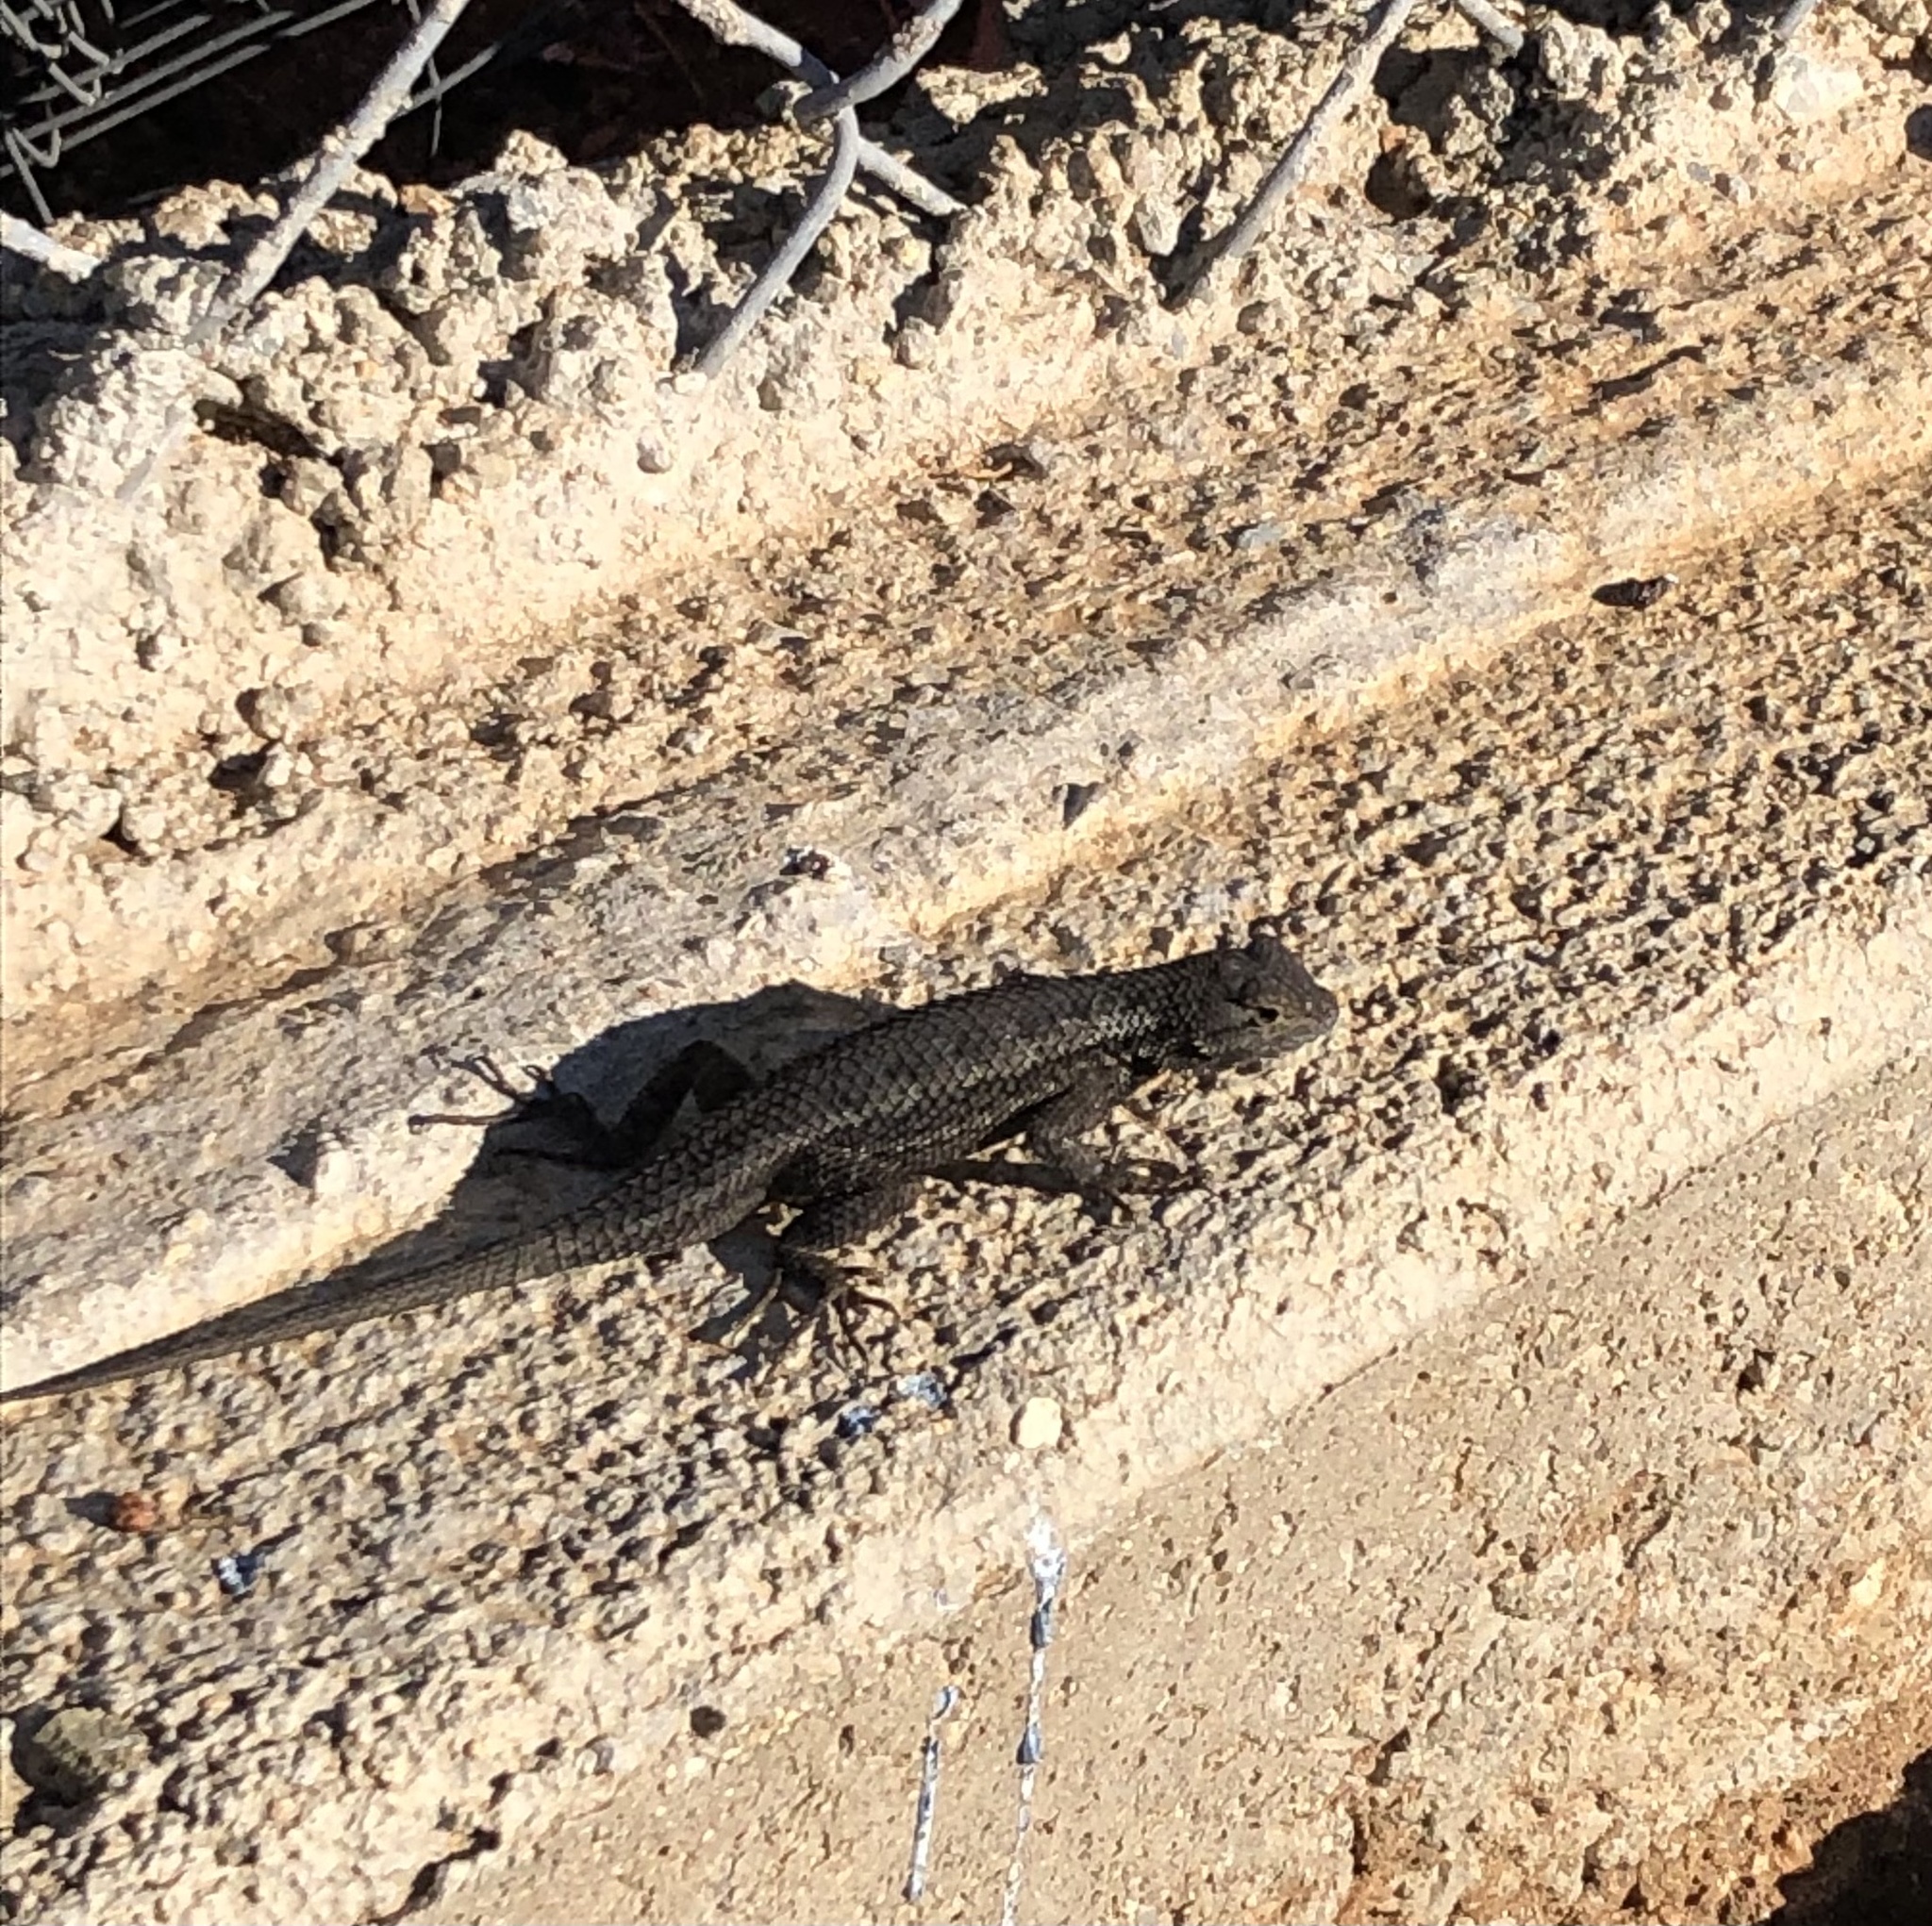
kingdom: Animalia
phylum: Chordata
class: Squamata
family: Phrynosomatidae
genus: Sceloporus
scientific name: Sceloporus occidentalis
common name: Western fence lizard
